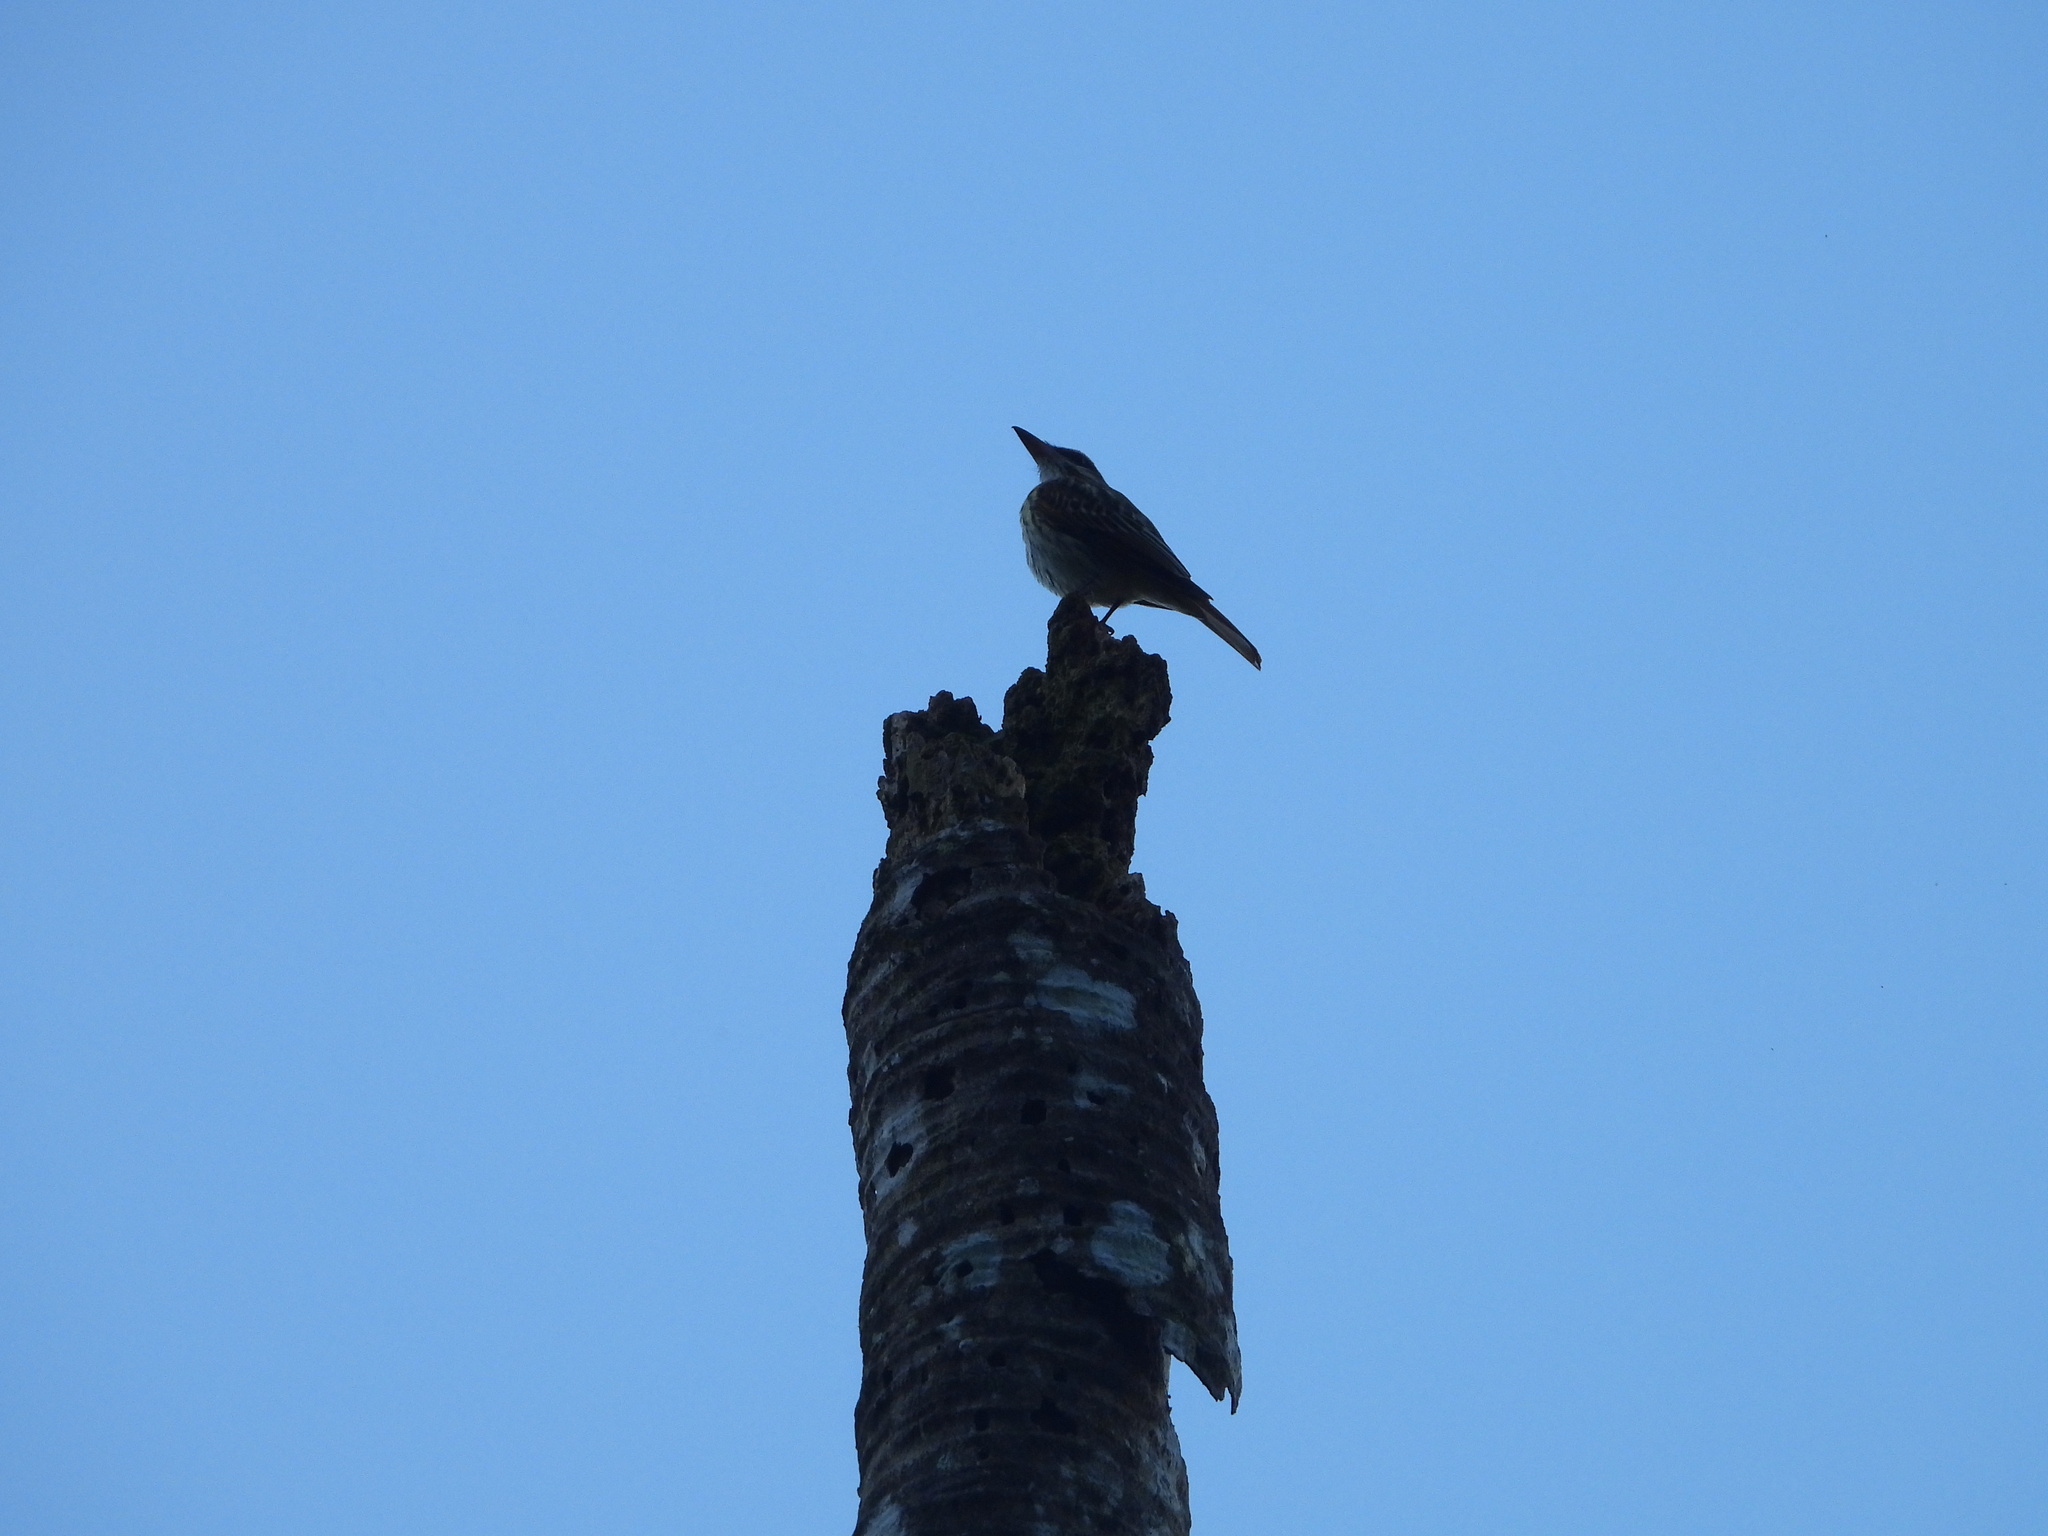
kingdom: Animalia
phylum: Chordata
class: Aves
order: Passeriformes
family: Tyrannidae
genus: Myiodynastes
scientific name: Myiodynastes maculatus
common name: Streaked flycatcher
